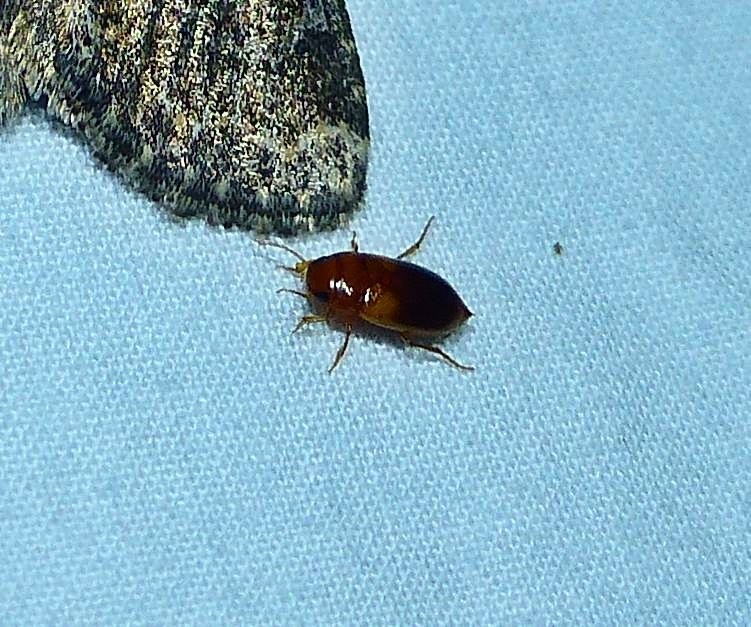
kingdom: Animalia
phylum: Arthropoda
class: Insecta
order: Coleoptera
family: Dytiscidae
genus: Celina
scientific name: Celina hubbelli
